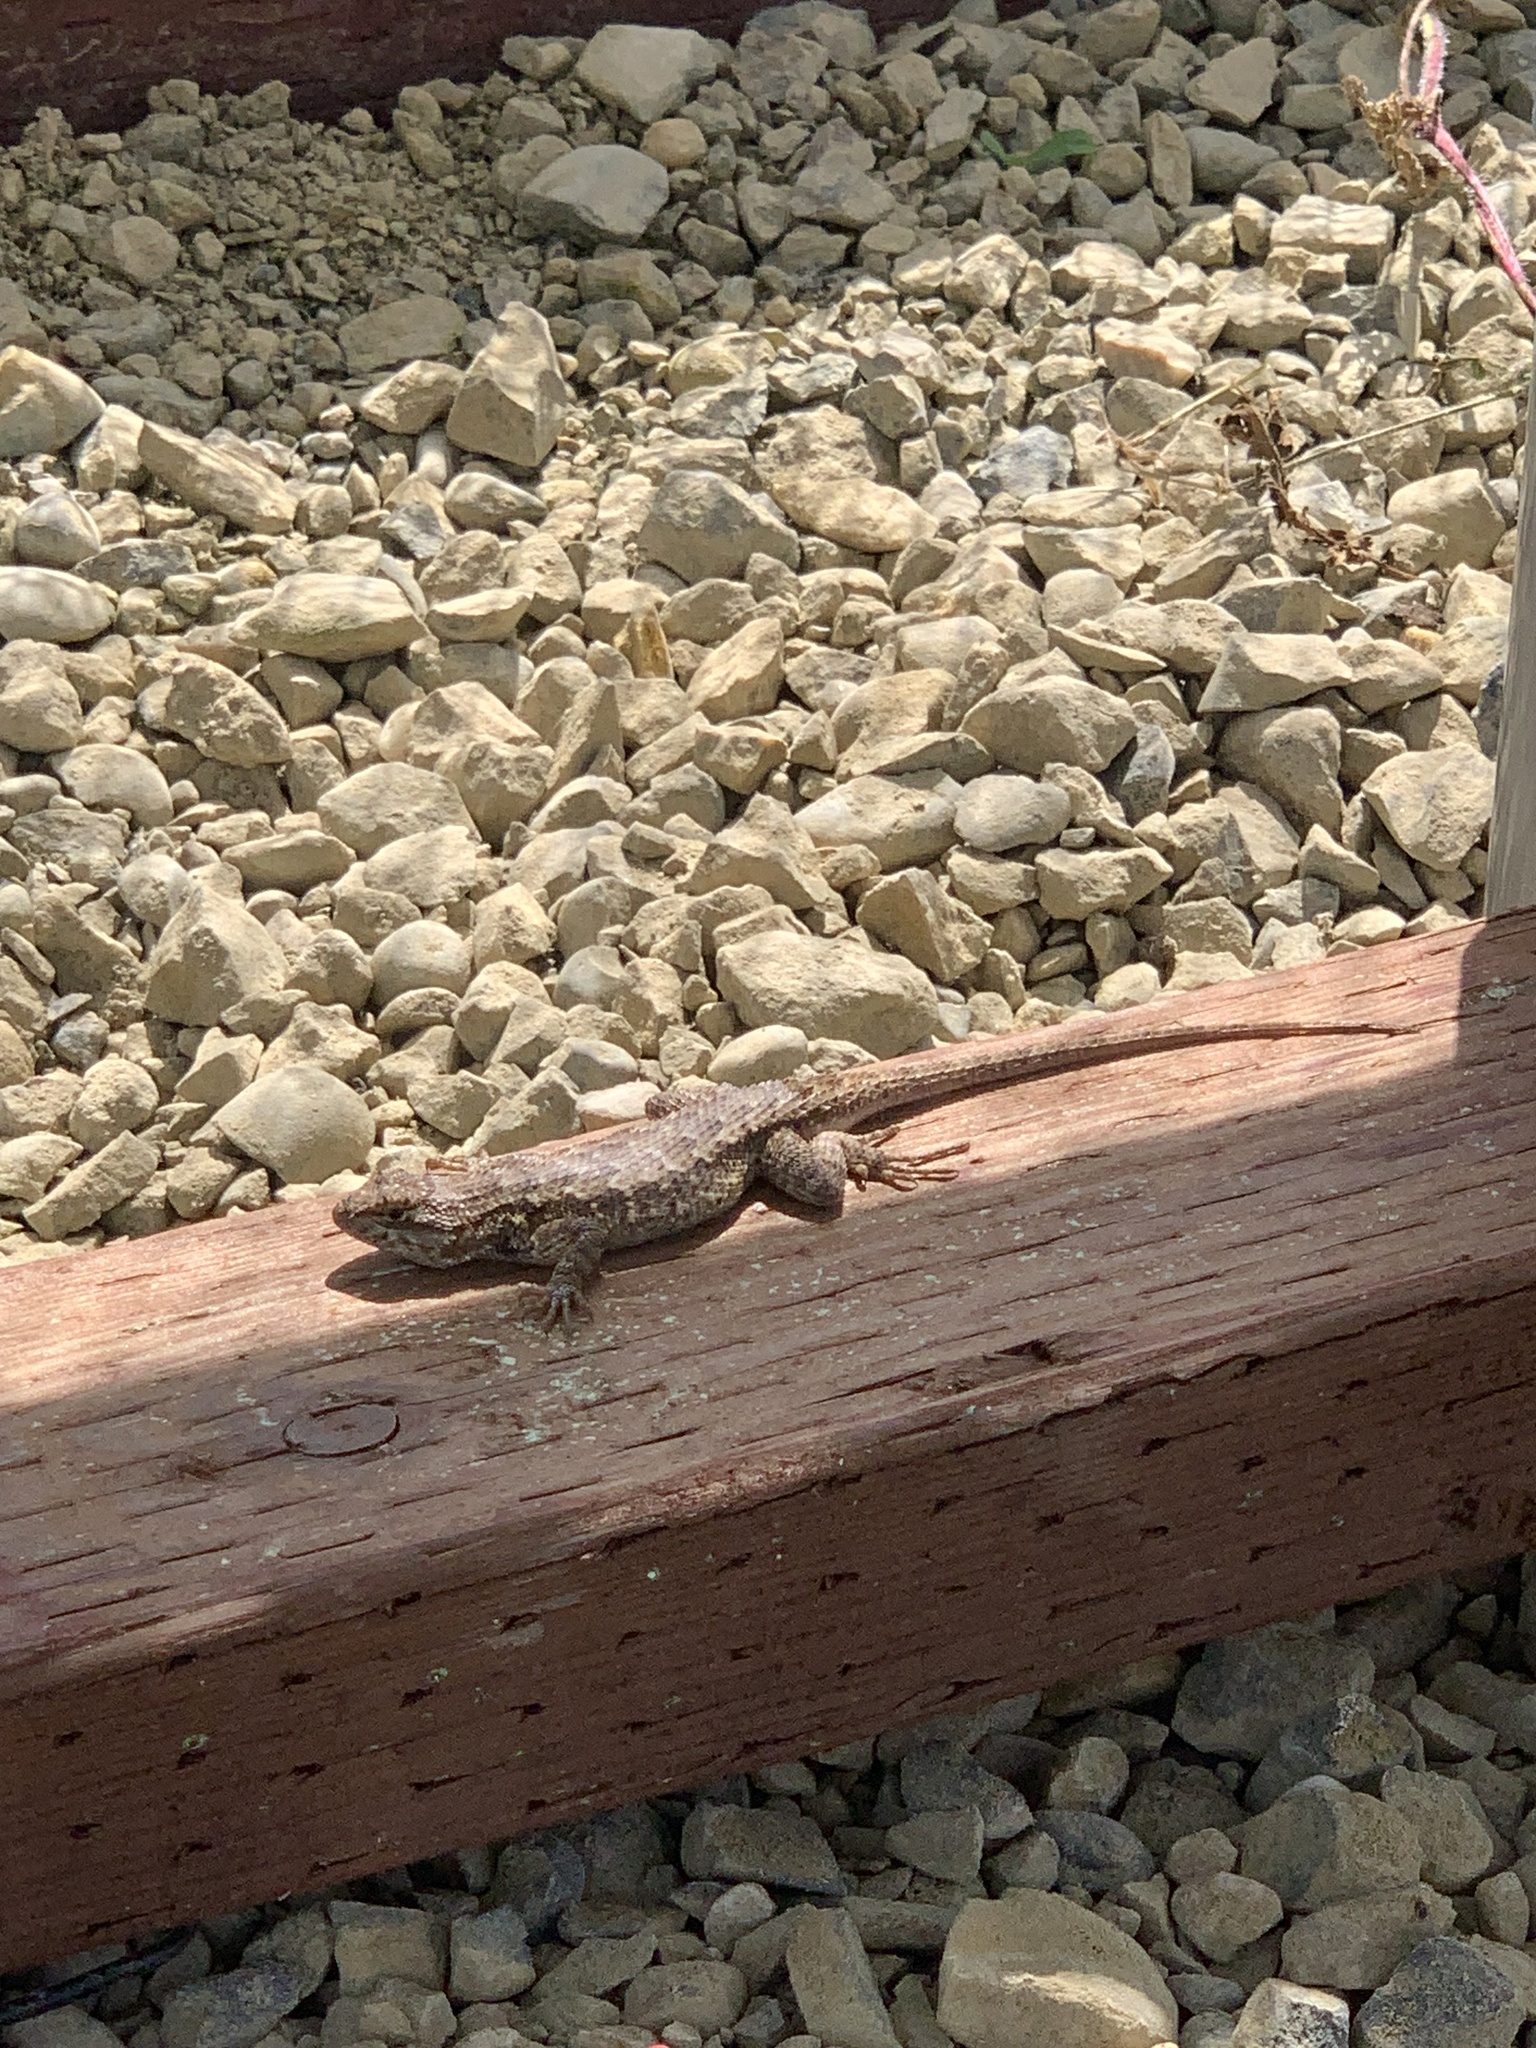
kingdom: Animalia
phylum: Chordata
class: Squamata
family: Phrynosomatidae
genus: Sceloporus
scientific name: Sceloporus occidentalis
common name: Western fence lizard
